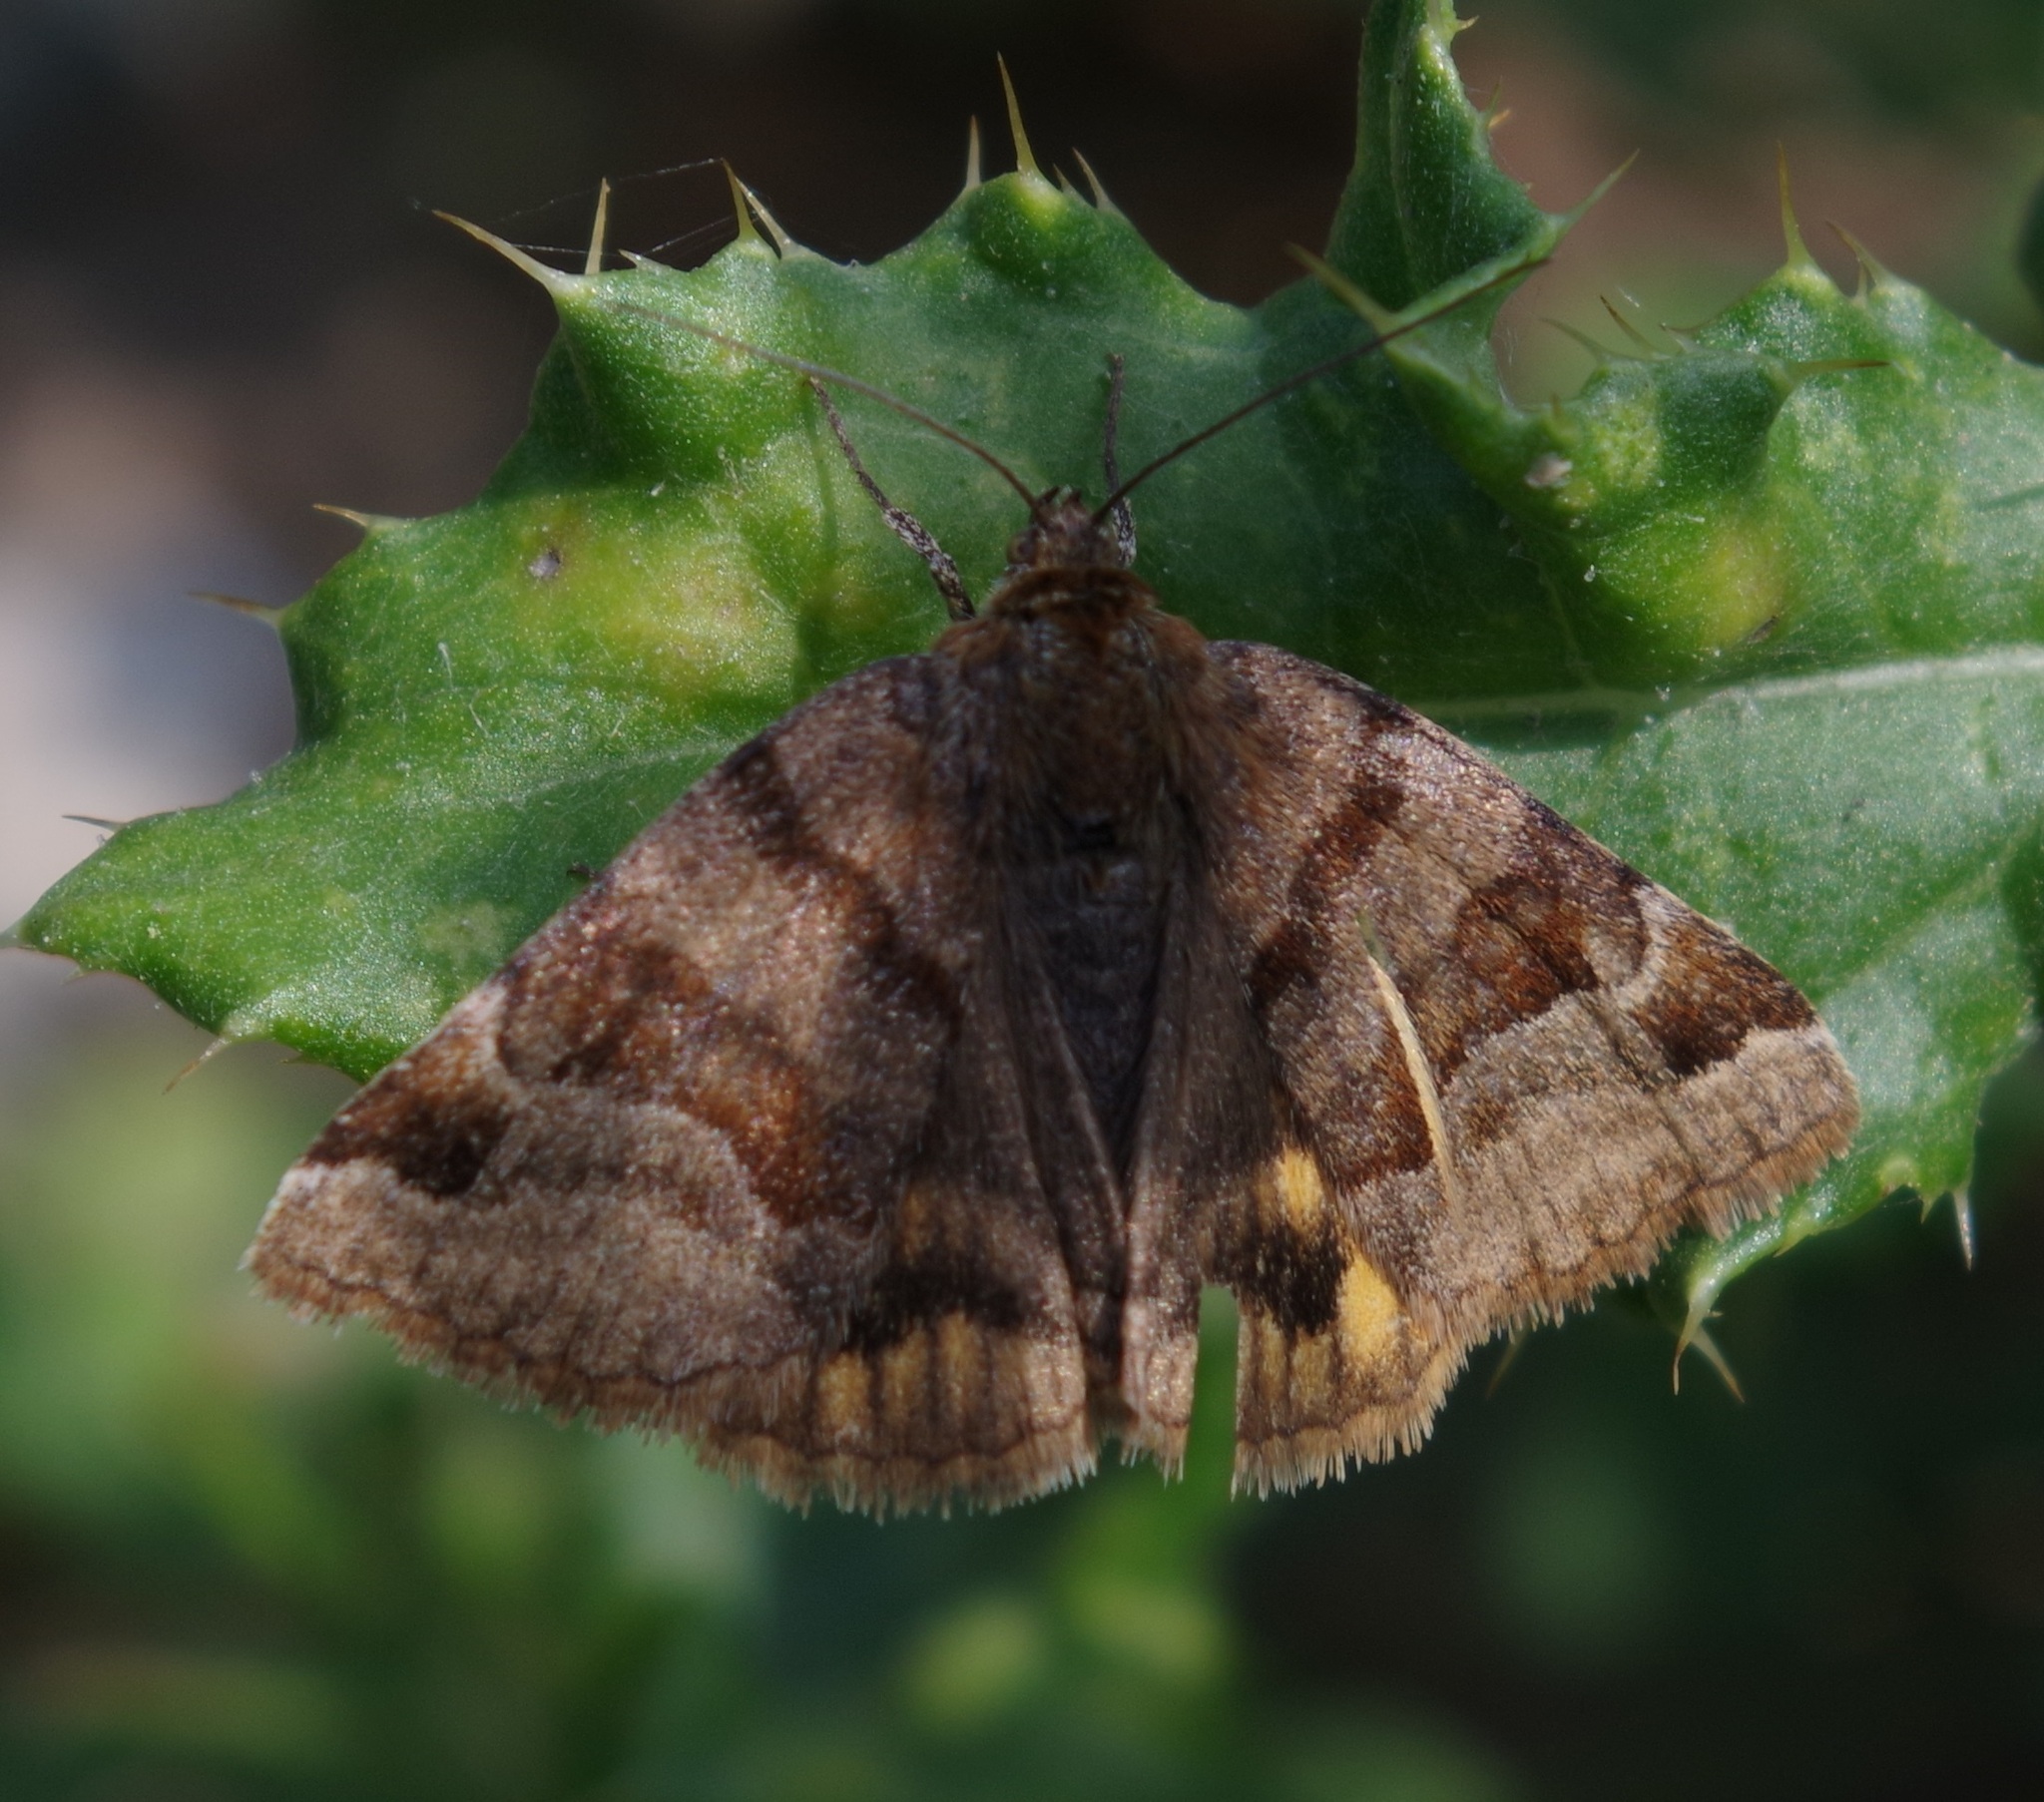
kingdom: Animalia
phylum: Arthropoda
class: Insecta
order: Lepidoptera
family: Erebidae
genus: Euclidia
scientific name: Euclidia glyphica
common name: Burnet companion
